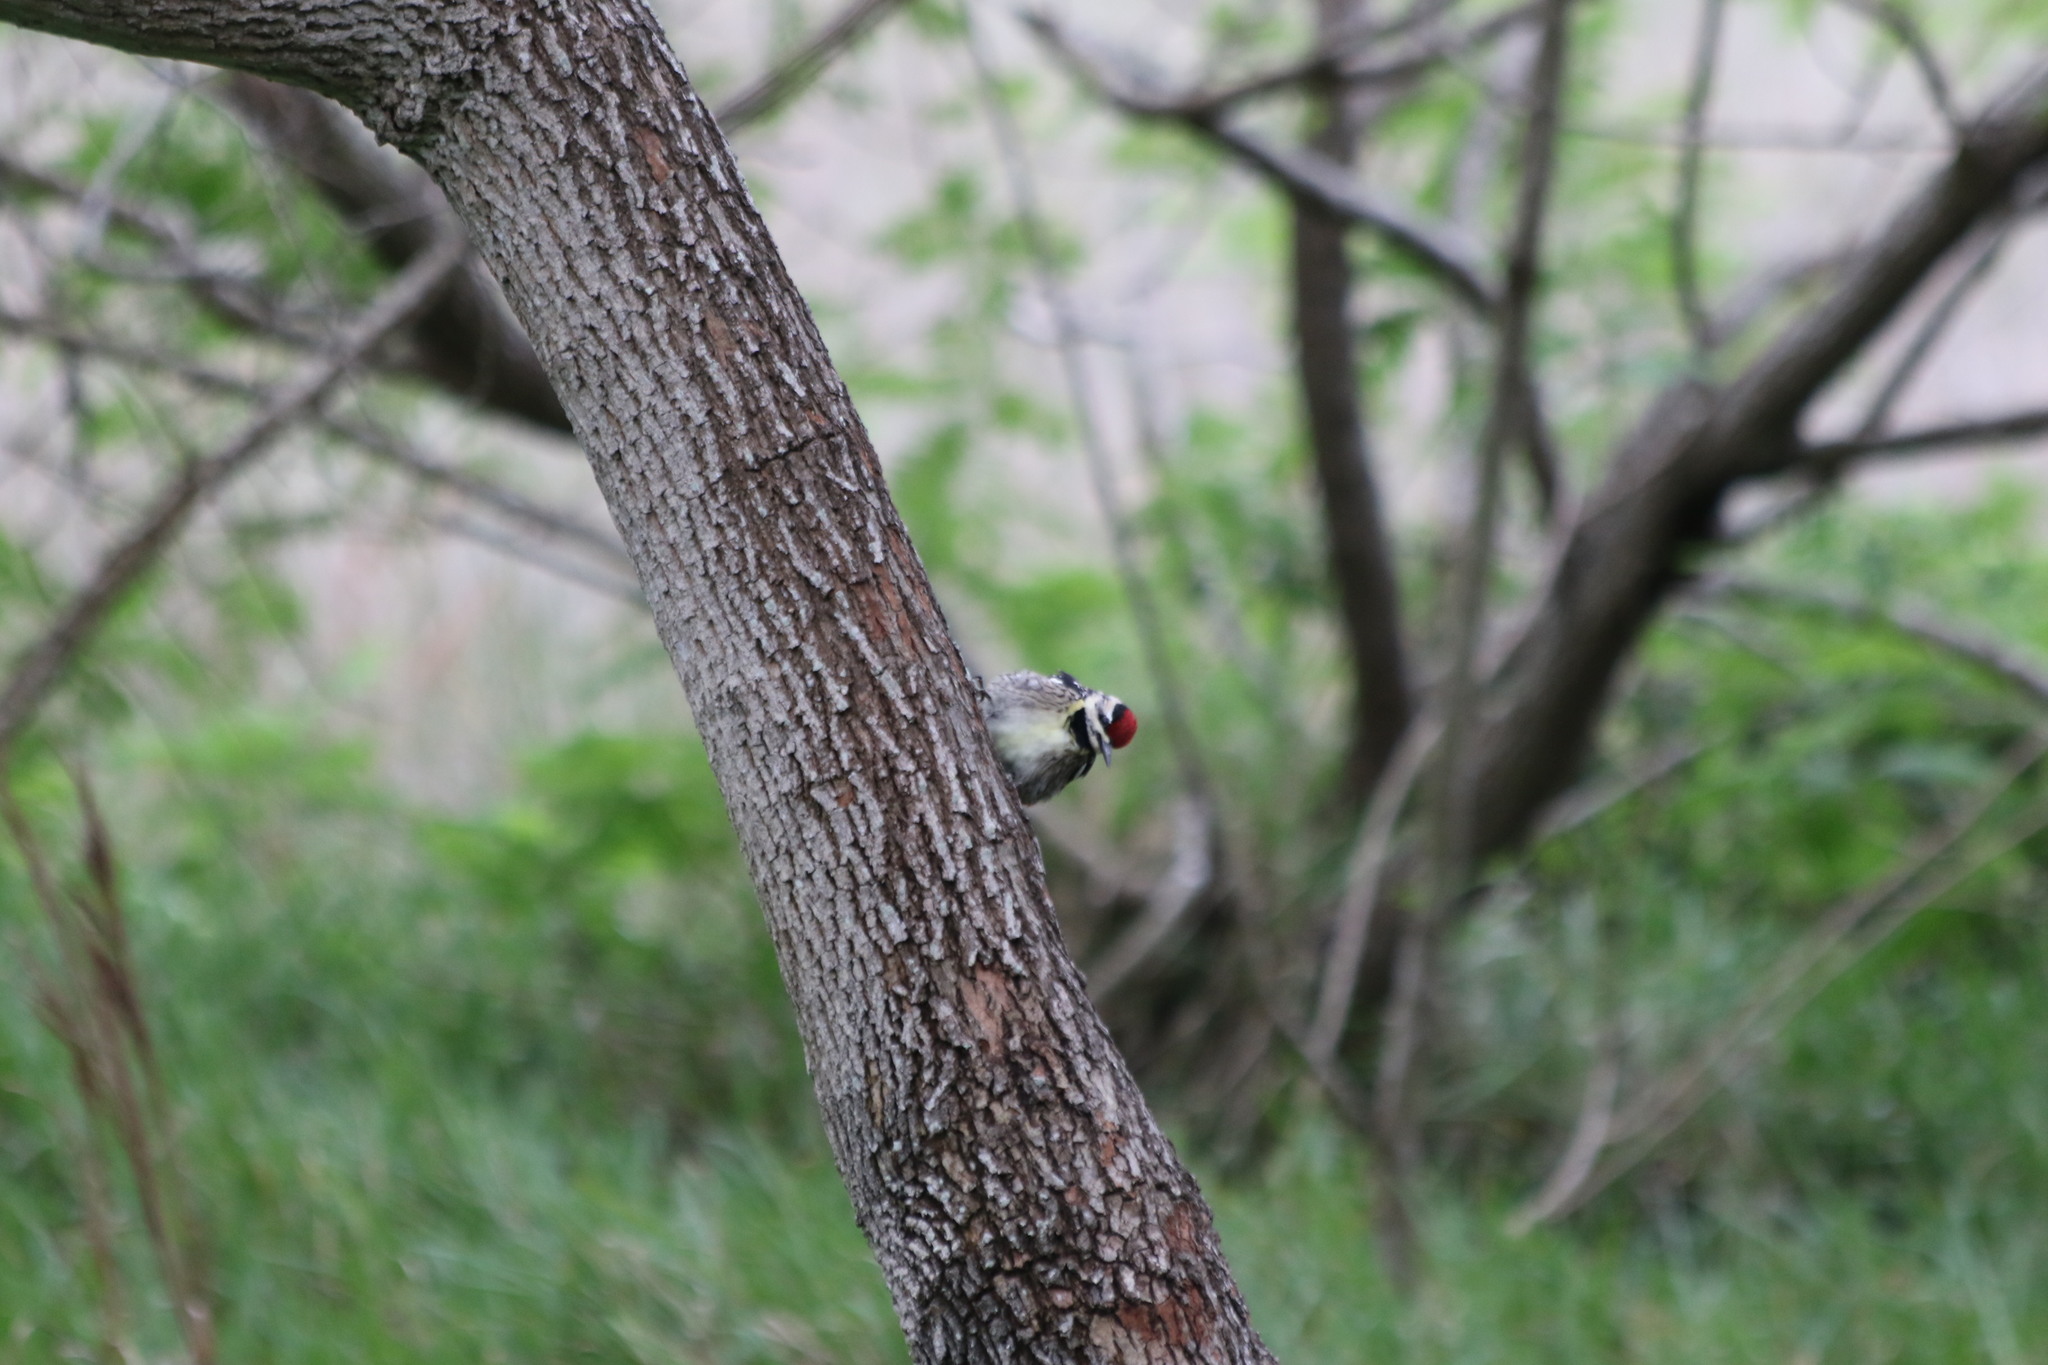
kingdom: Animalia
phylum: Chordata
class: Aves
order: Piciformes
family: Picidae
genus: Sphyrapicus
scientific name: Sphyrapicus varius
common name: Yellow-bellied sapsucker
